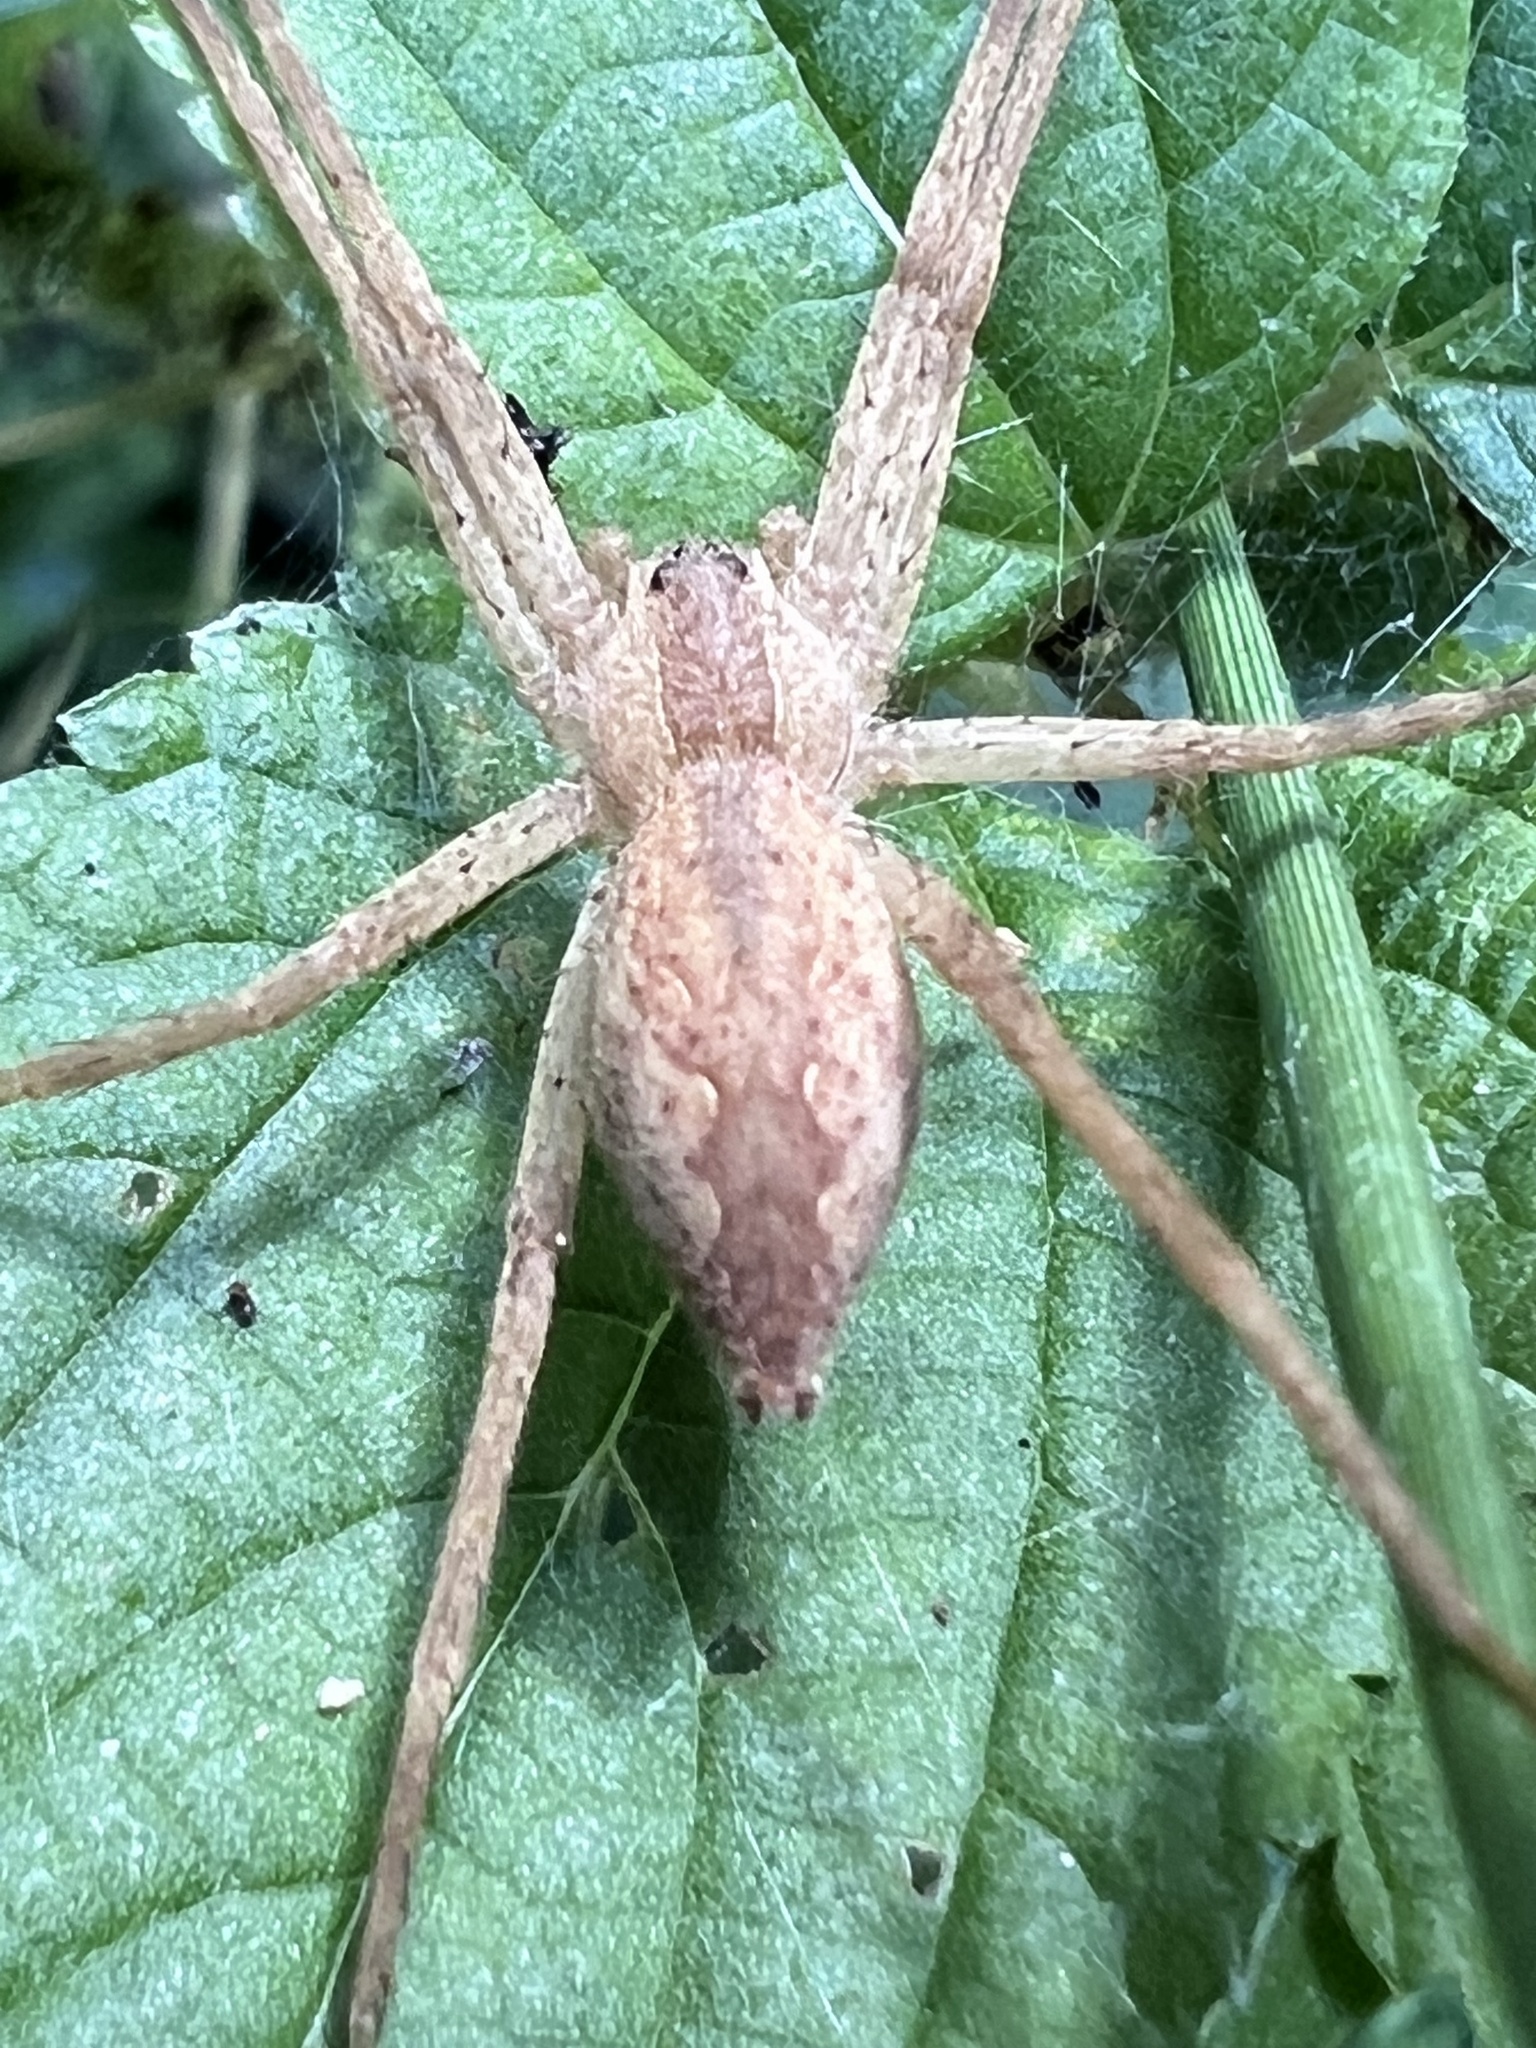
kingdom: Animalia
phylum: Arthropoda
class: Arachnida
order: Araneae
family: Pisauridae
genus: Pisaurina
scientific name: Pisaurina mira
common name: American nursery web spider
